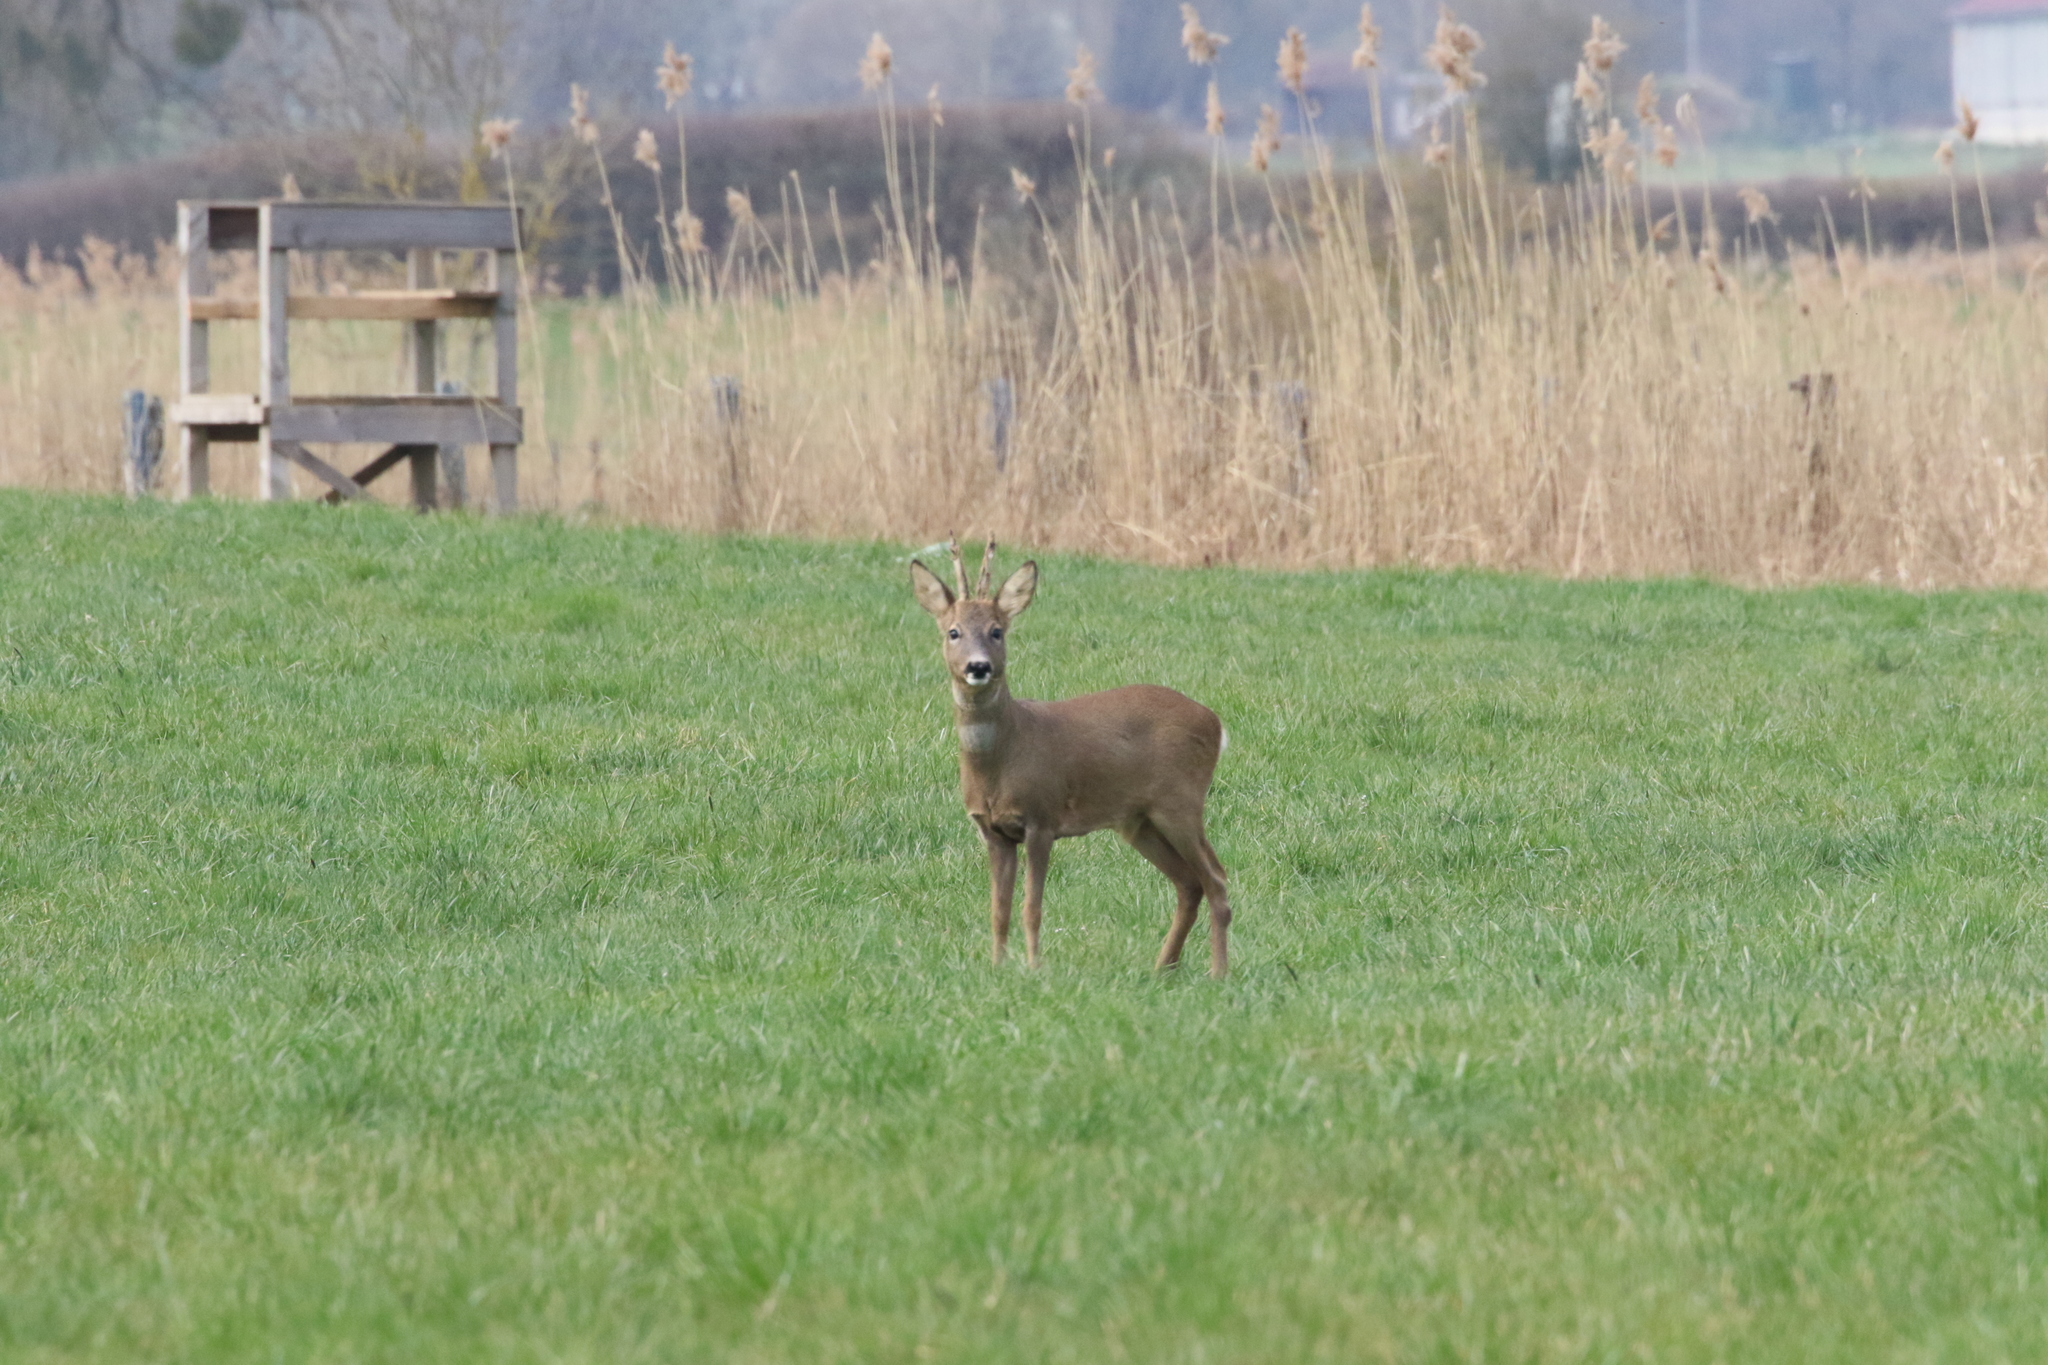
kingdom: Animalia
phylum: Chordata
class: Mammalia
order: Artiodactyla
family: Cervidae
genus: Capreolus
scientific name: Capreolus capreolus
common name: Western roe deer
